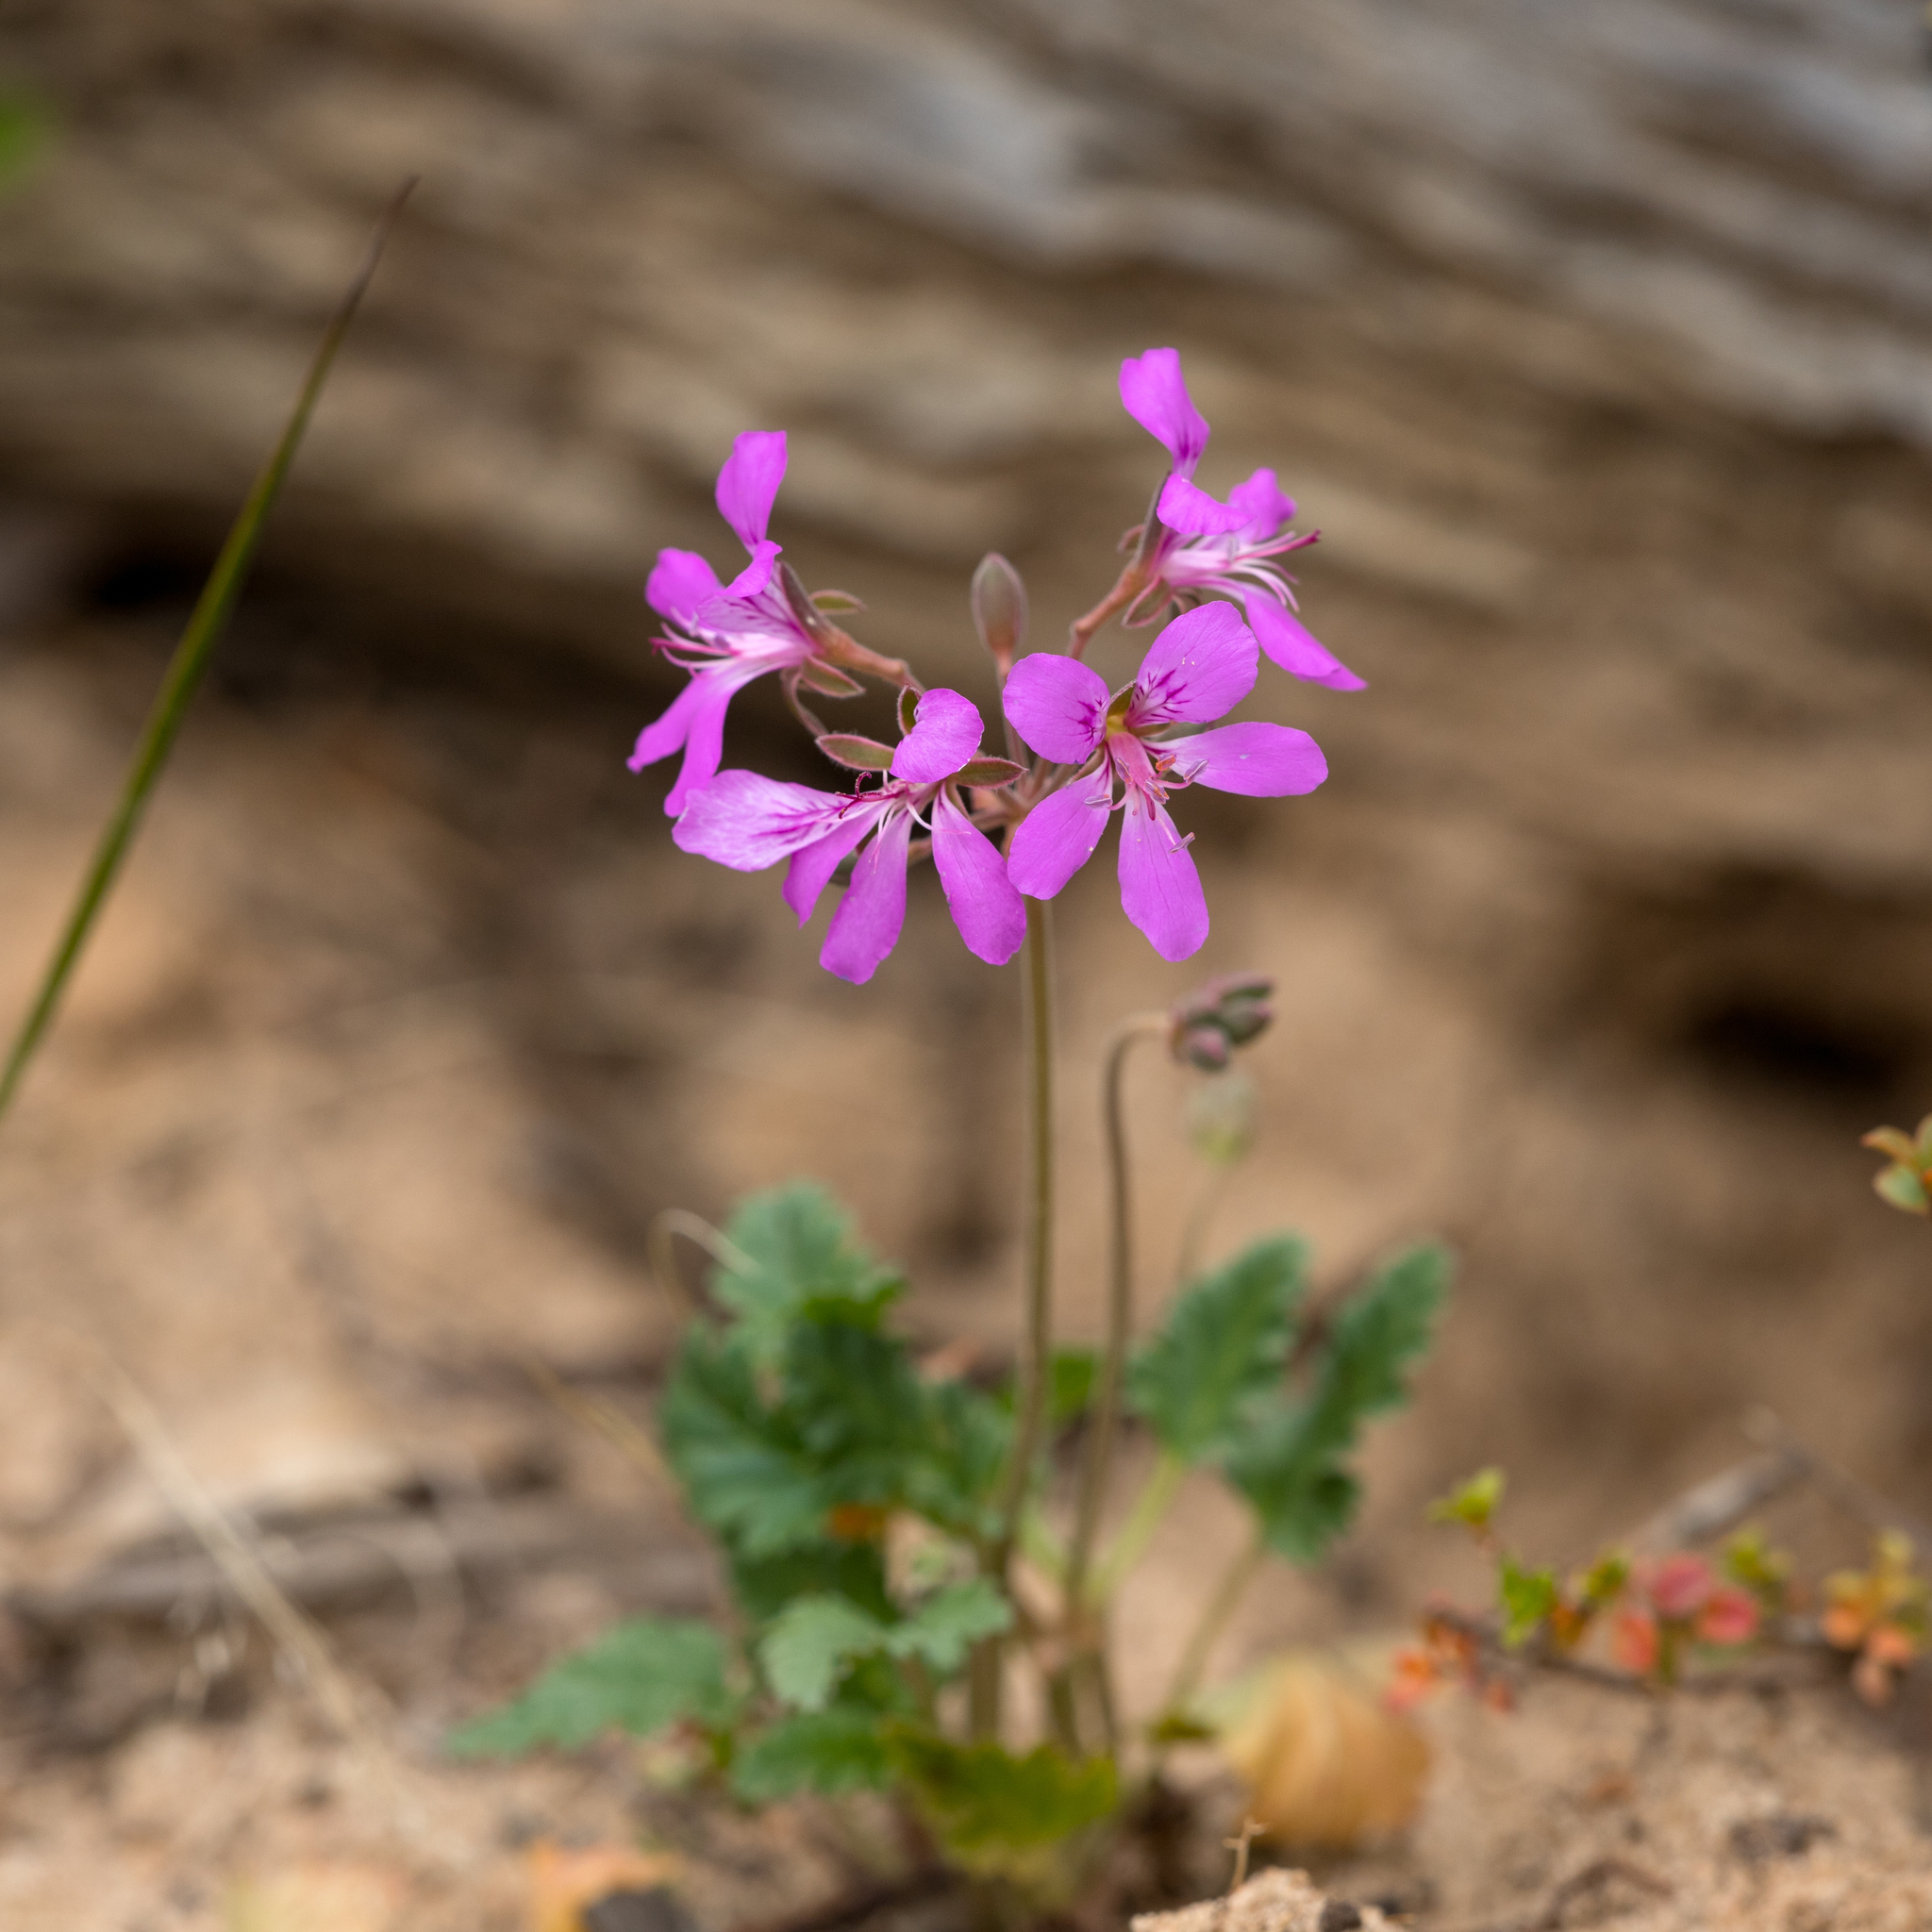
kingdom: Plantae
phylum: Tracheophyta
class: Magnoliopsida
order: Geraniales
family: Geraniaceae
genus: Pelargonium
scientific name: Pelargonium rodneyanum
